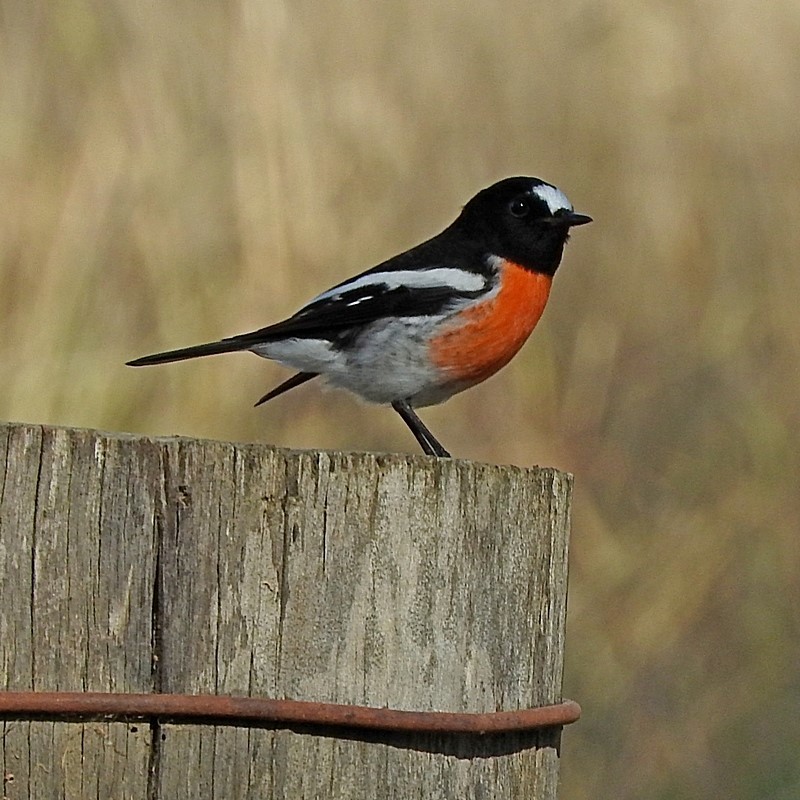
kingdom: Animalia
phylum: Chordata
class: Aves
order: Passeriformes
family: Petroicidae
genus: Petroica
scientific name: Petroica boodang
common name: Scarlet robin
